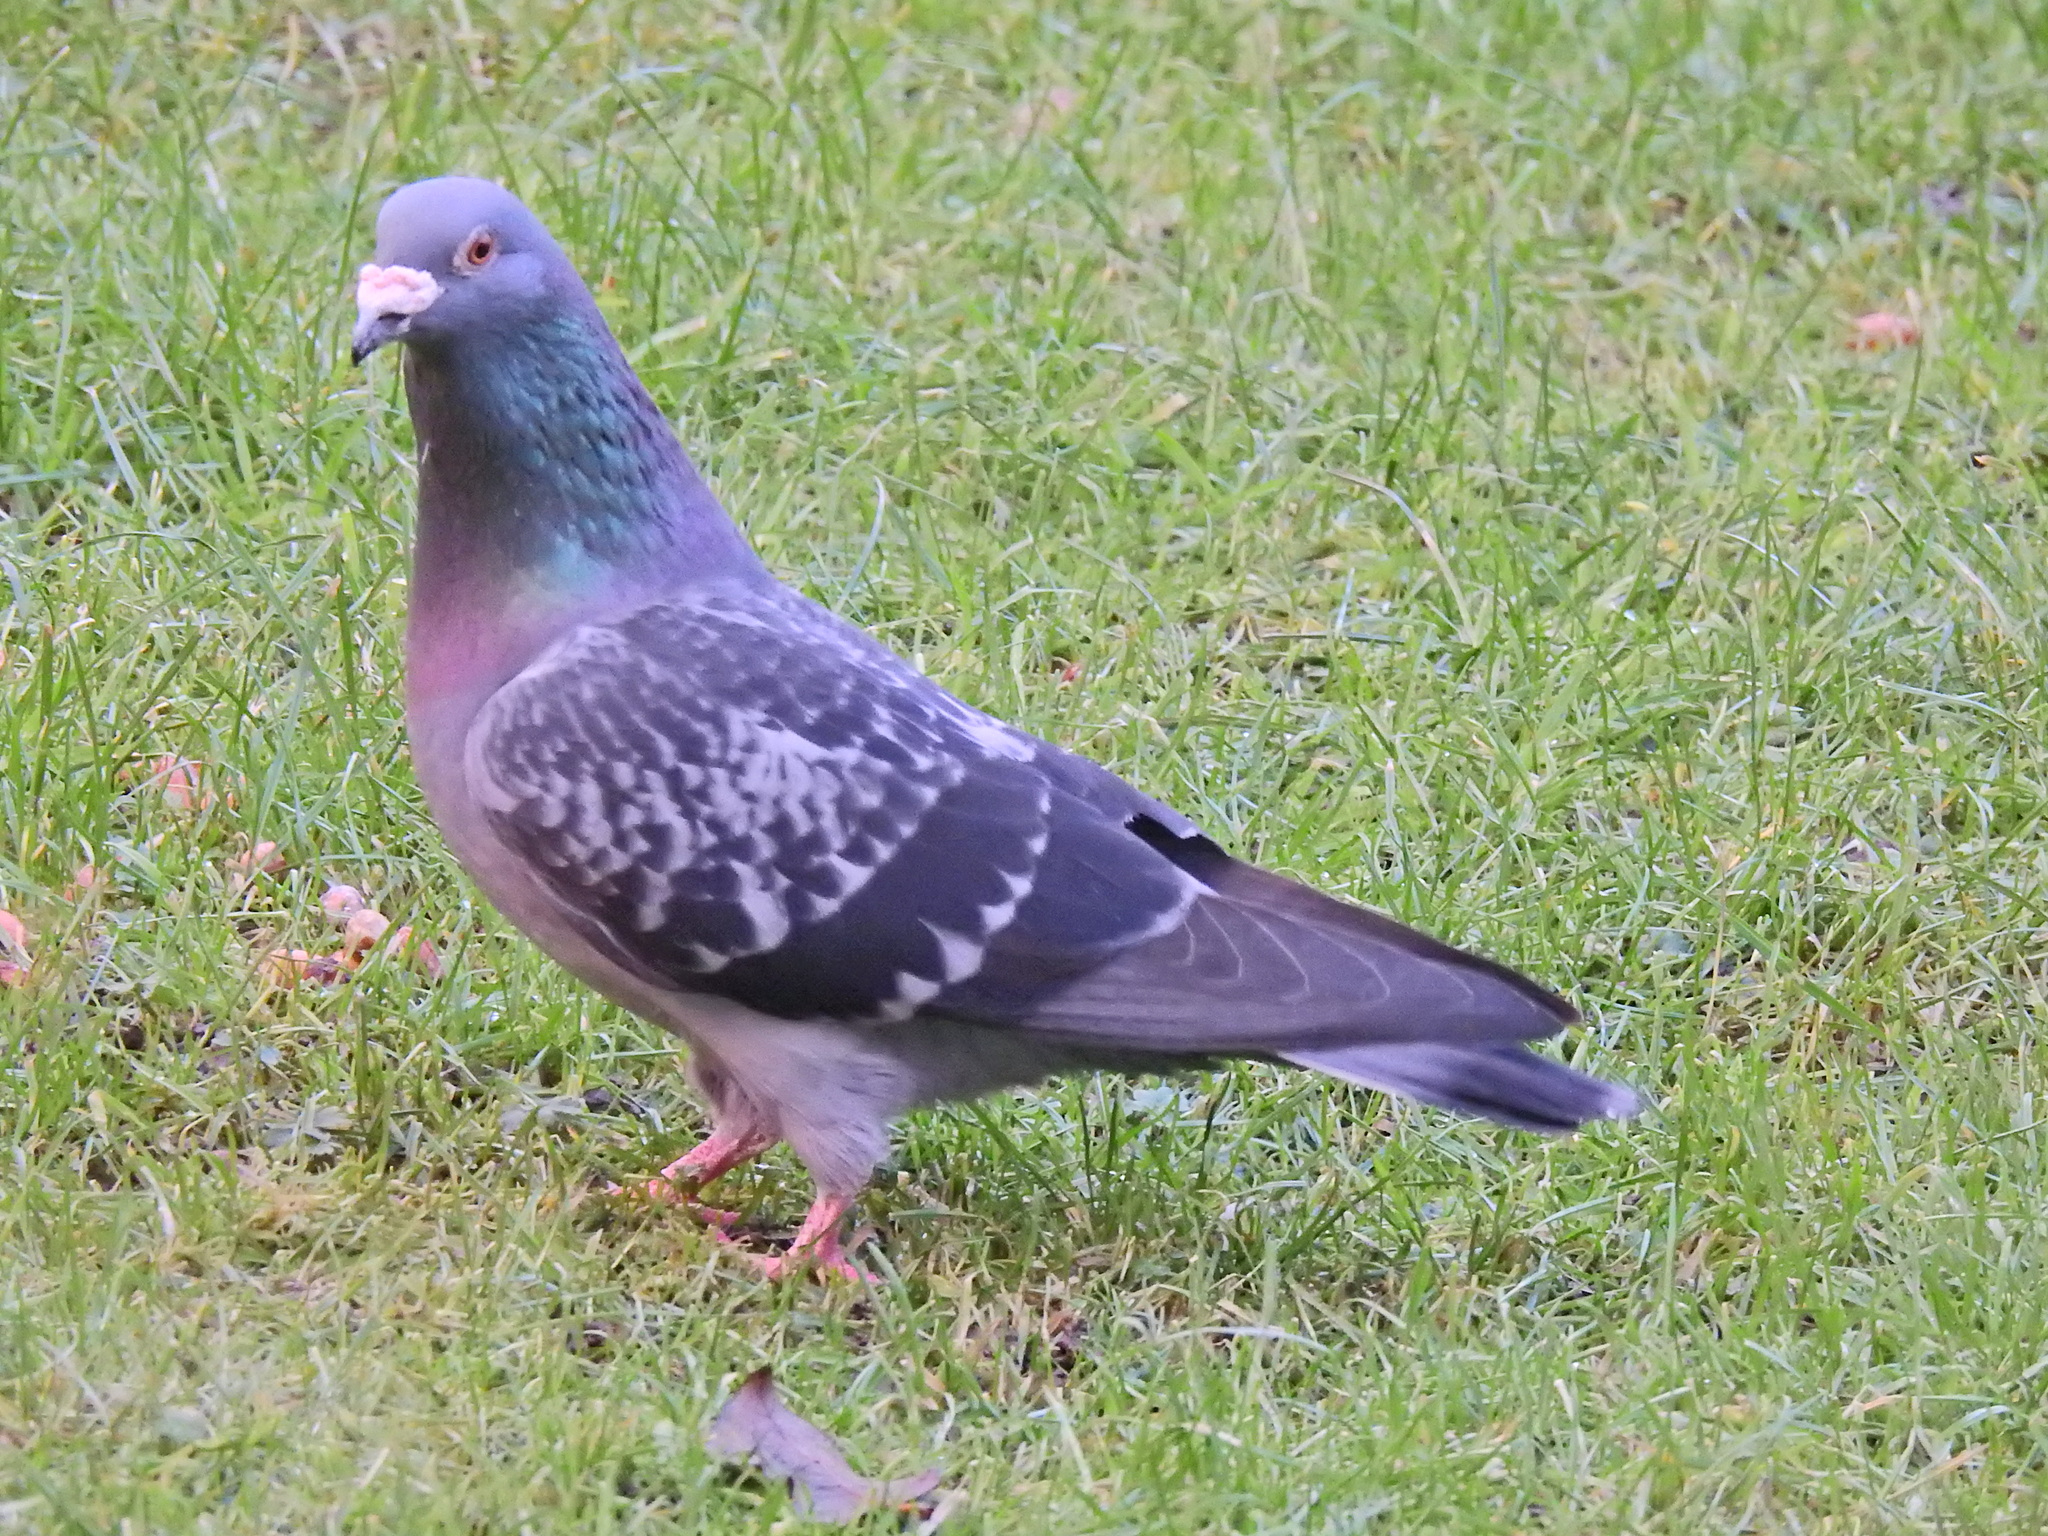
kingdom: Animalia
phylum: Chordata
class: Aves
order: Columbiformes
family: Columbidae
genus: Columba
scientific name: Columba livia
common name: Rock pigeon
